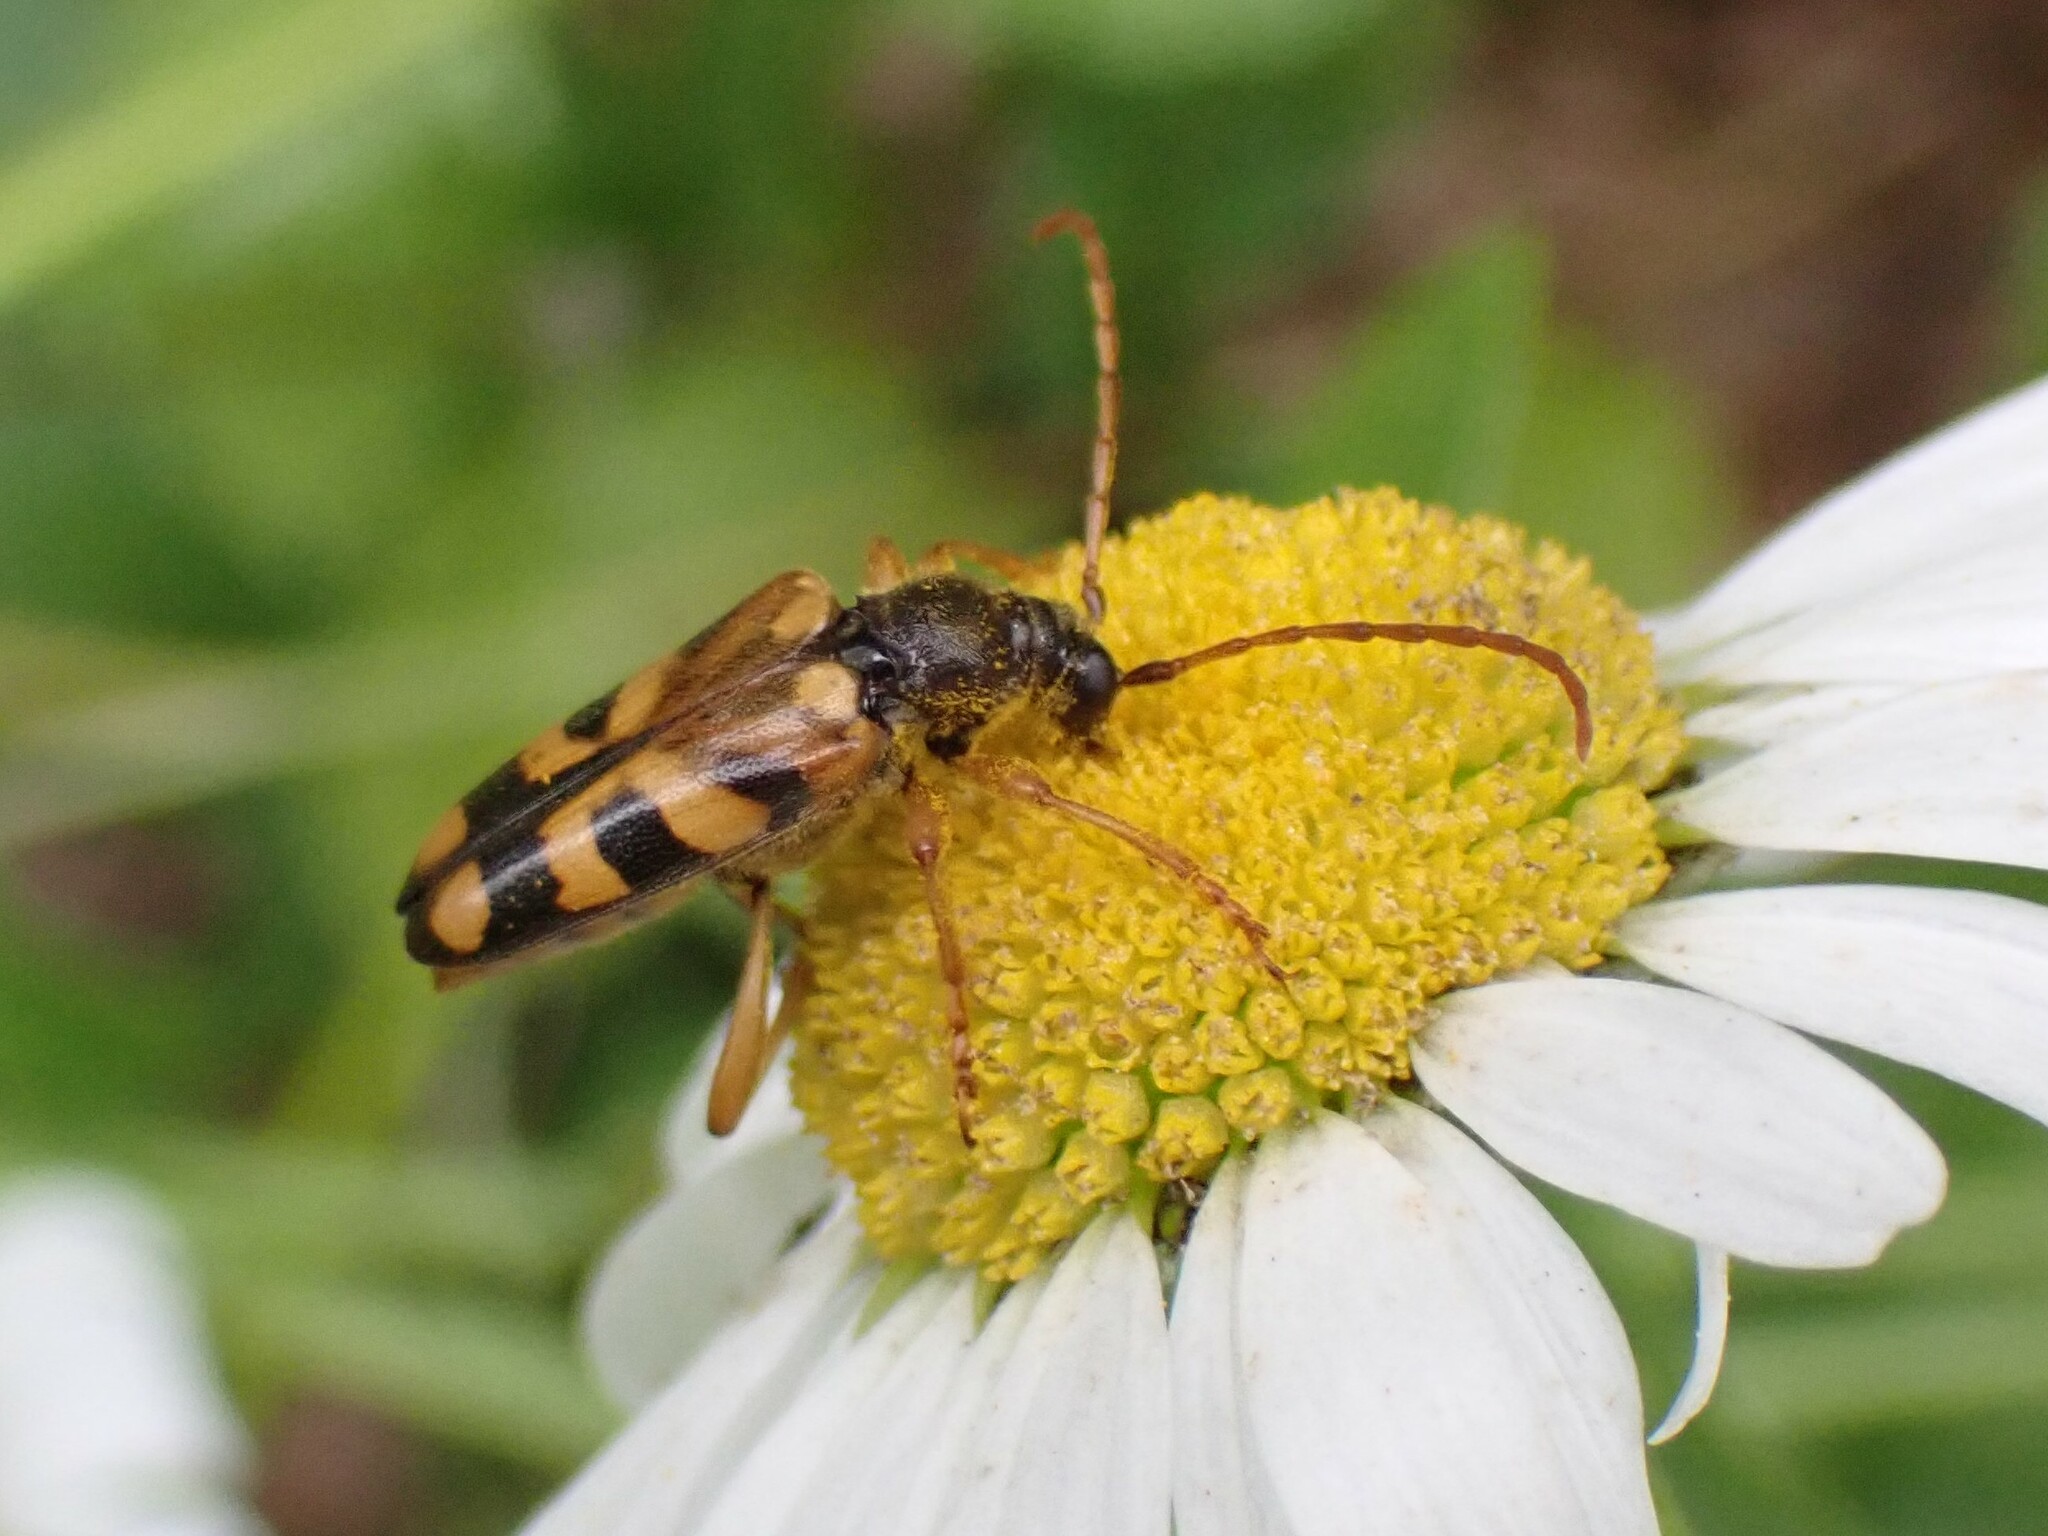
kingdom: Animalia
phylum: Arthropoda
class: Insecta
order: Coleoptera
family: Cerambycidae
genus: Xestoleptura
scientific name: Xestoleptura crassipes
